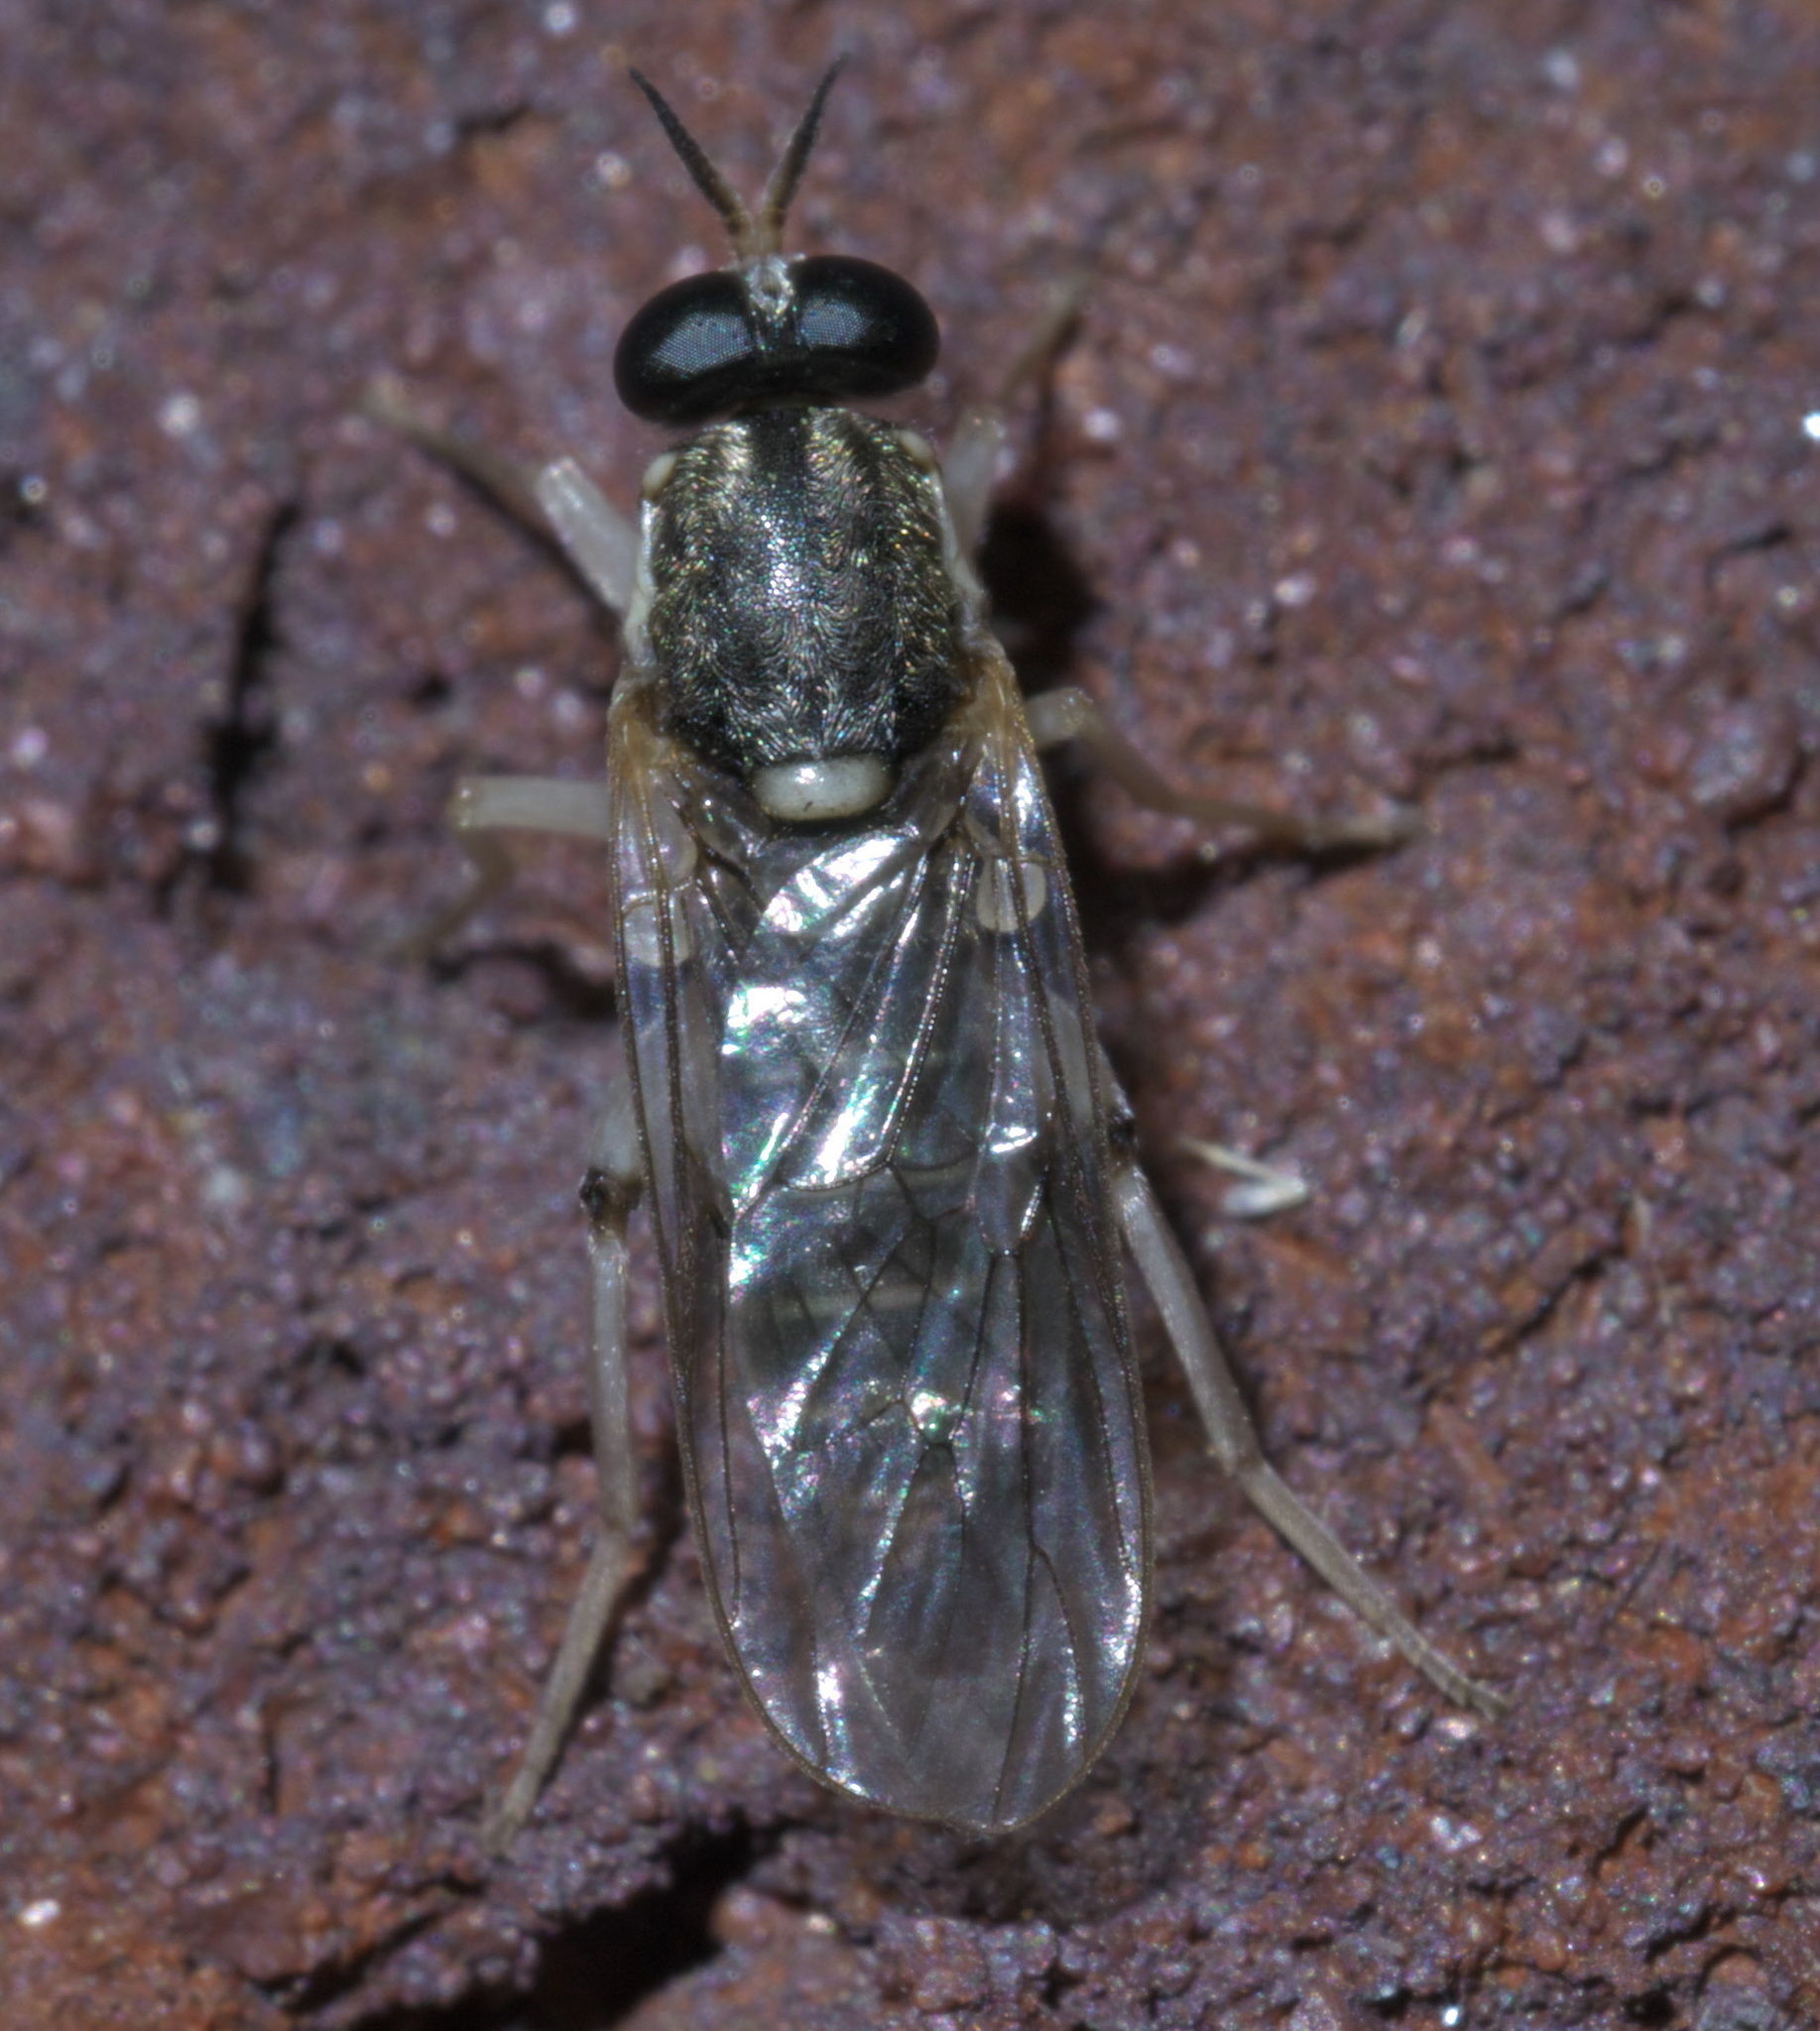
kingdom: Animalia
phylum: Arthropoda
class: Insecta
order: Diptera
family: Xylomyidae
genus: Solva
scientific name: Solva pallipes
